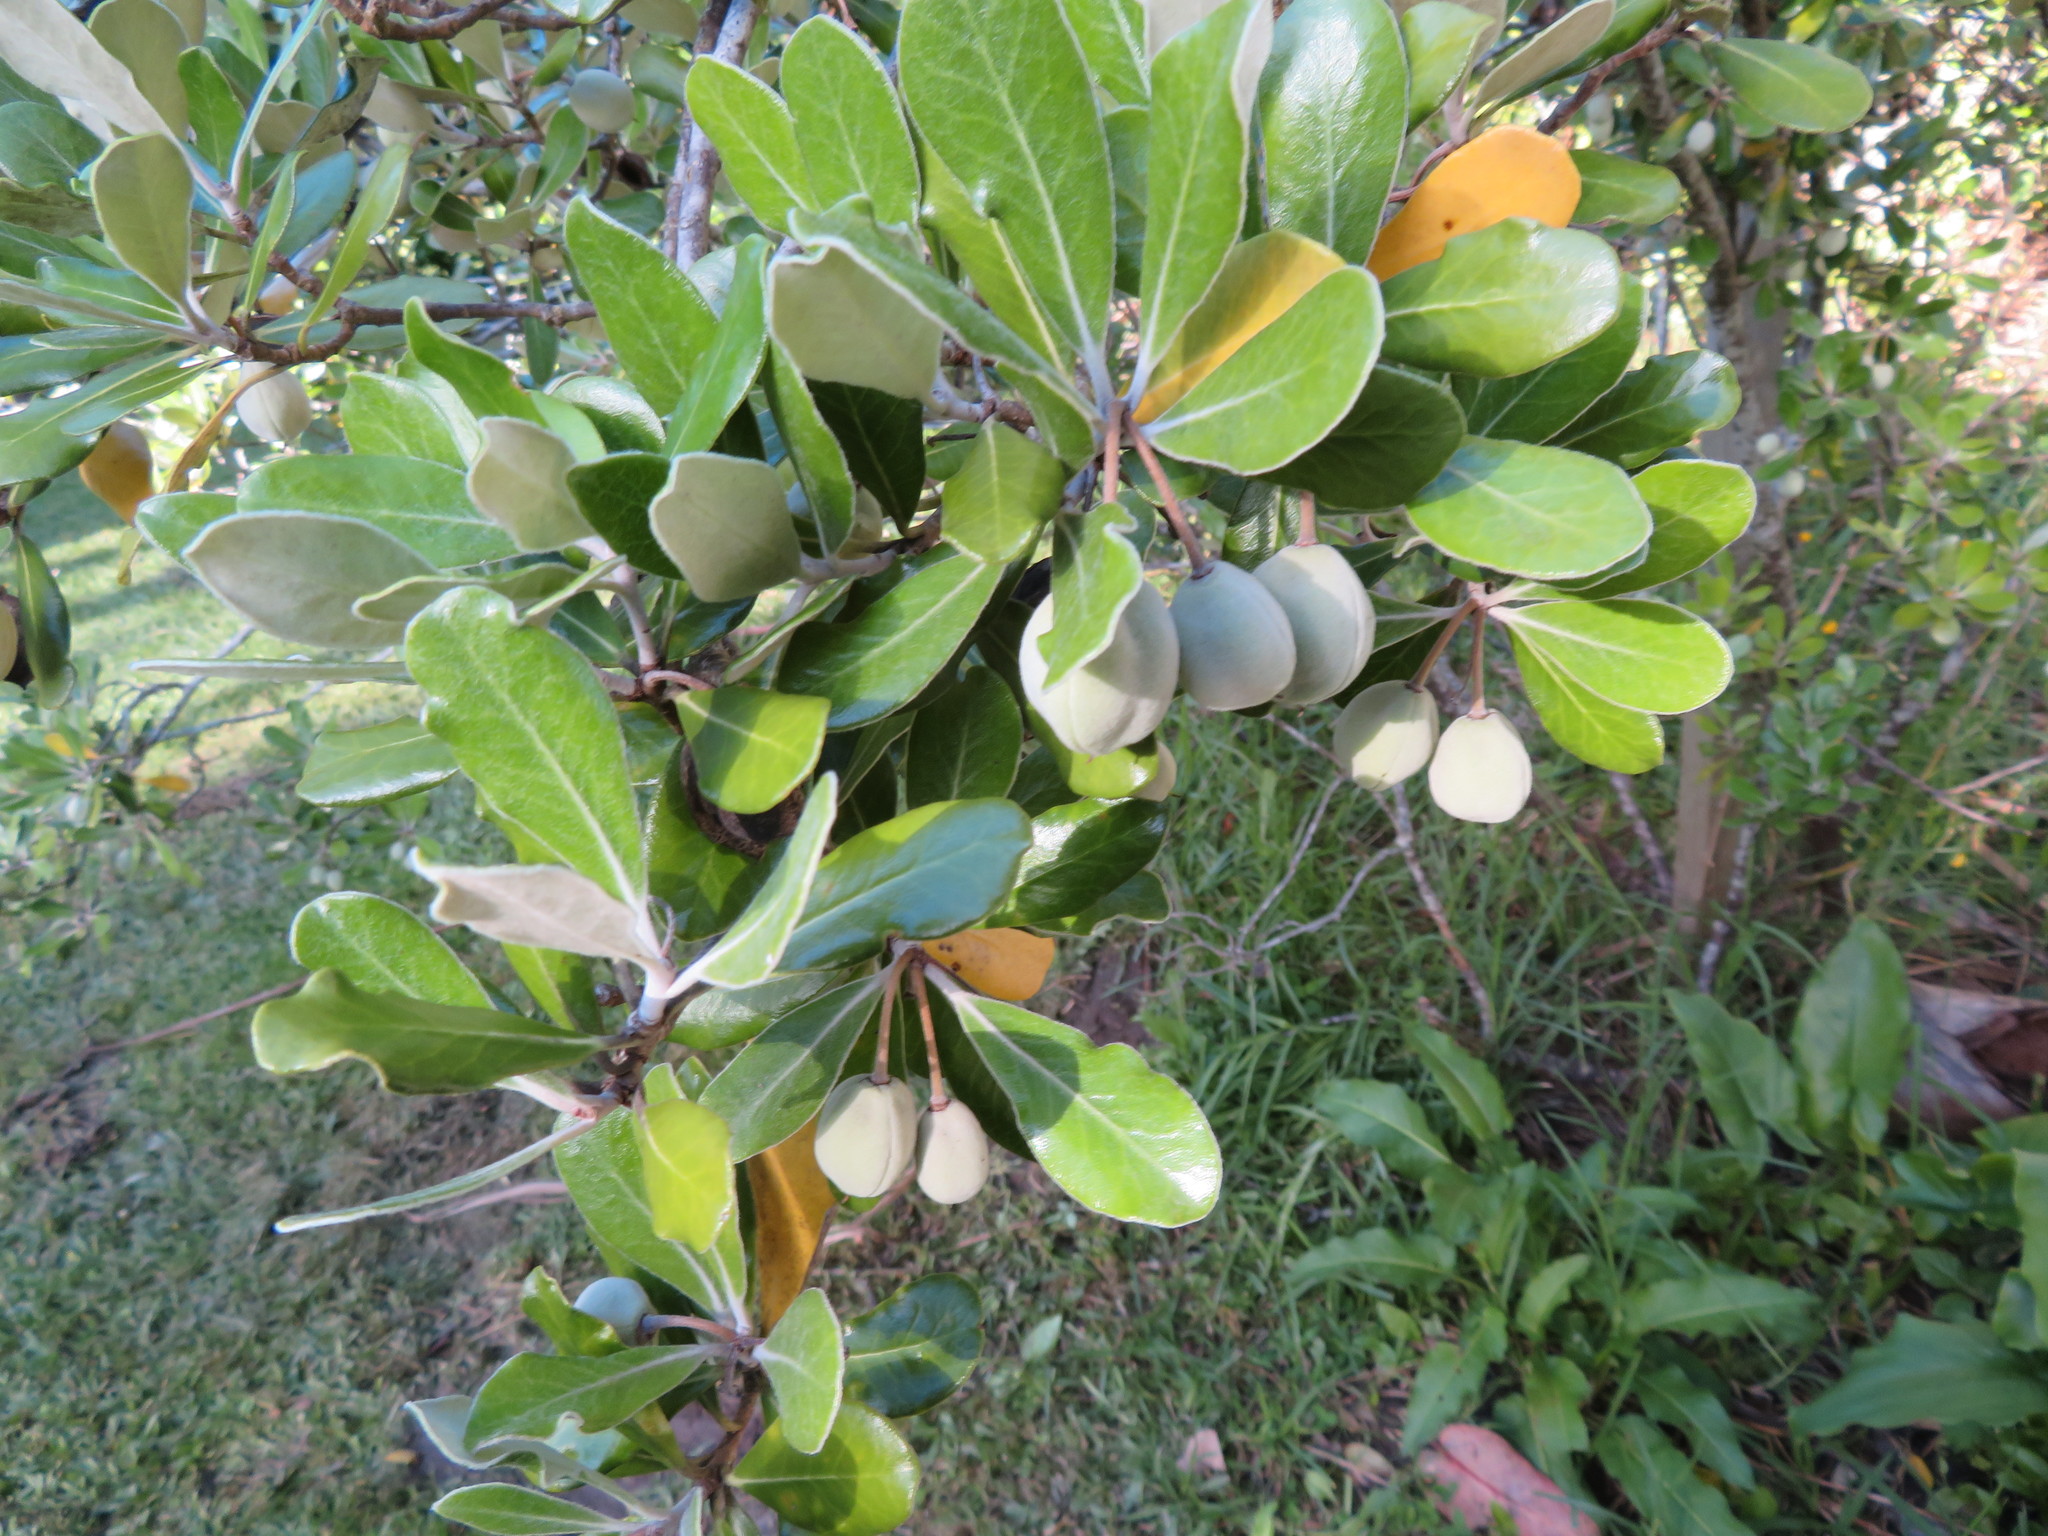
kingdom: Plantae
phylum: Tracheophyta
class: Magnoliopsida
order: Apiales
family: Pittosporaceae
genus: Pittosporum
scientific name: Pittosporum crassifolium
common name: Karo
